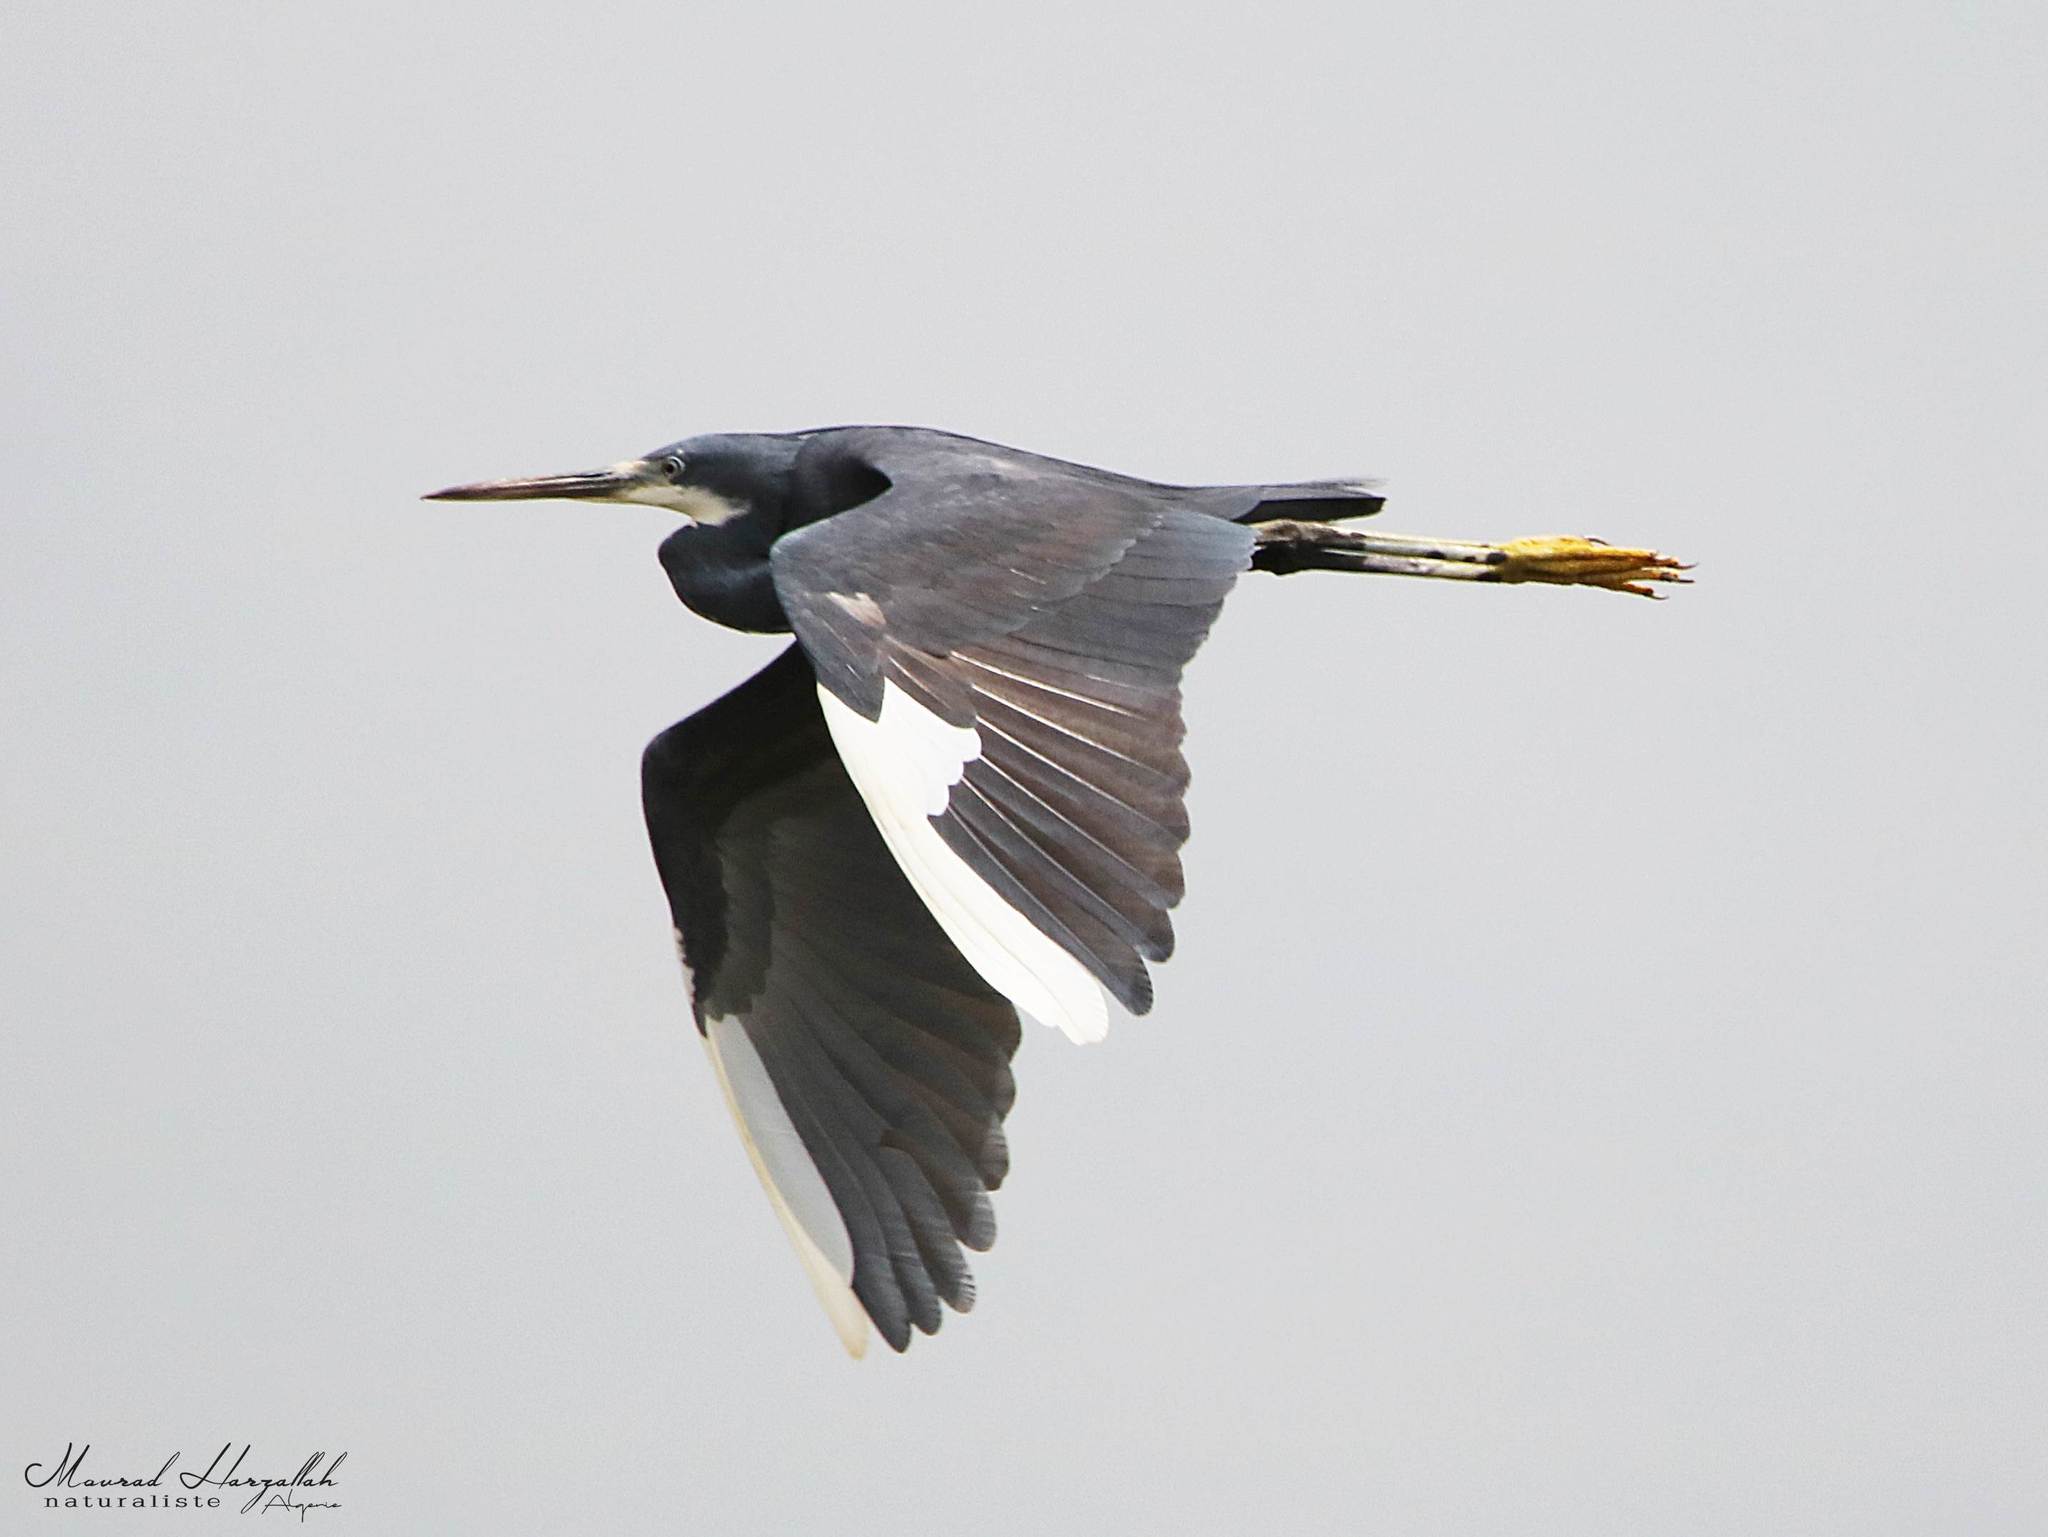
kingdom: Animalia
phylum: Chordata
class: Aves
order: Pelecaniformes
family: Ardeidae
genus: Egretta
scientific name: Egretta gularis
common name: Western reef-heron
